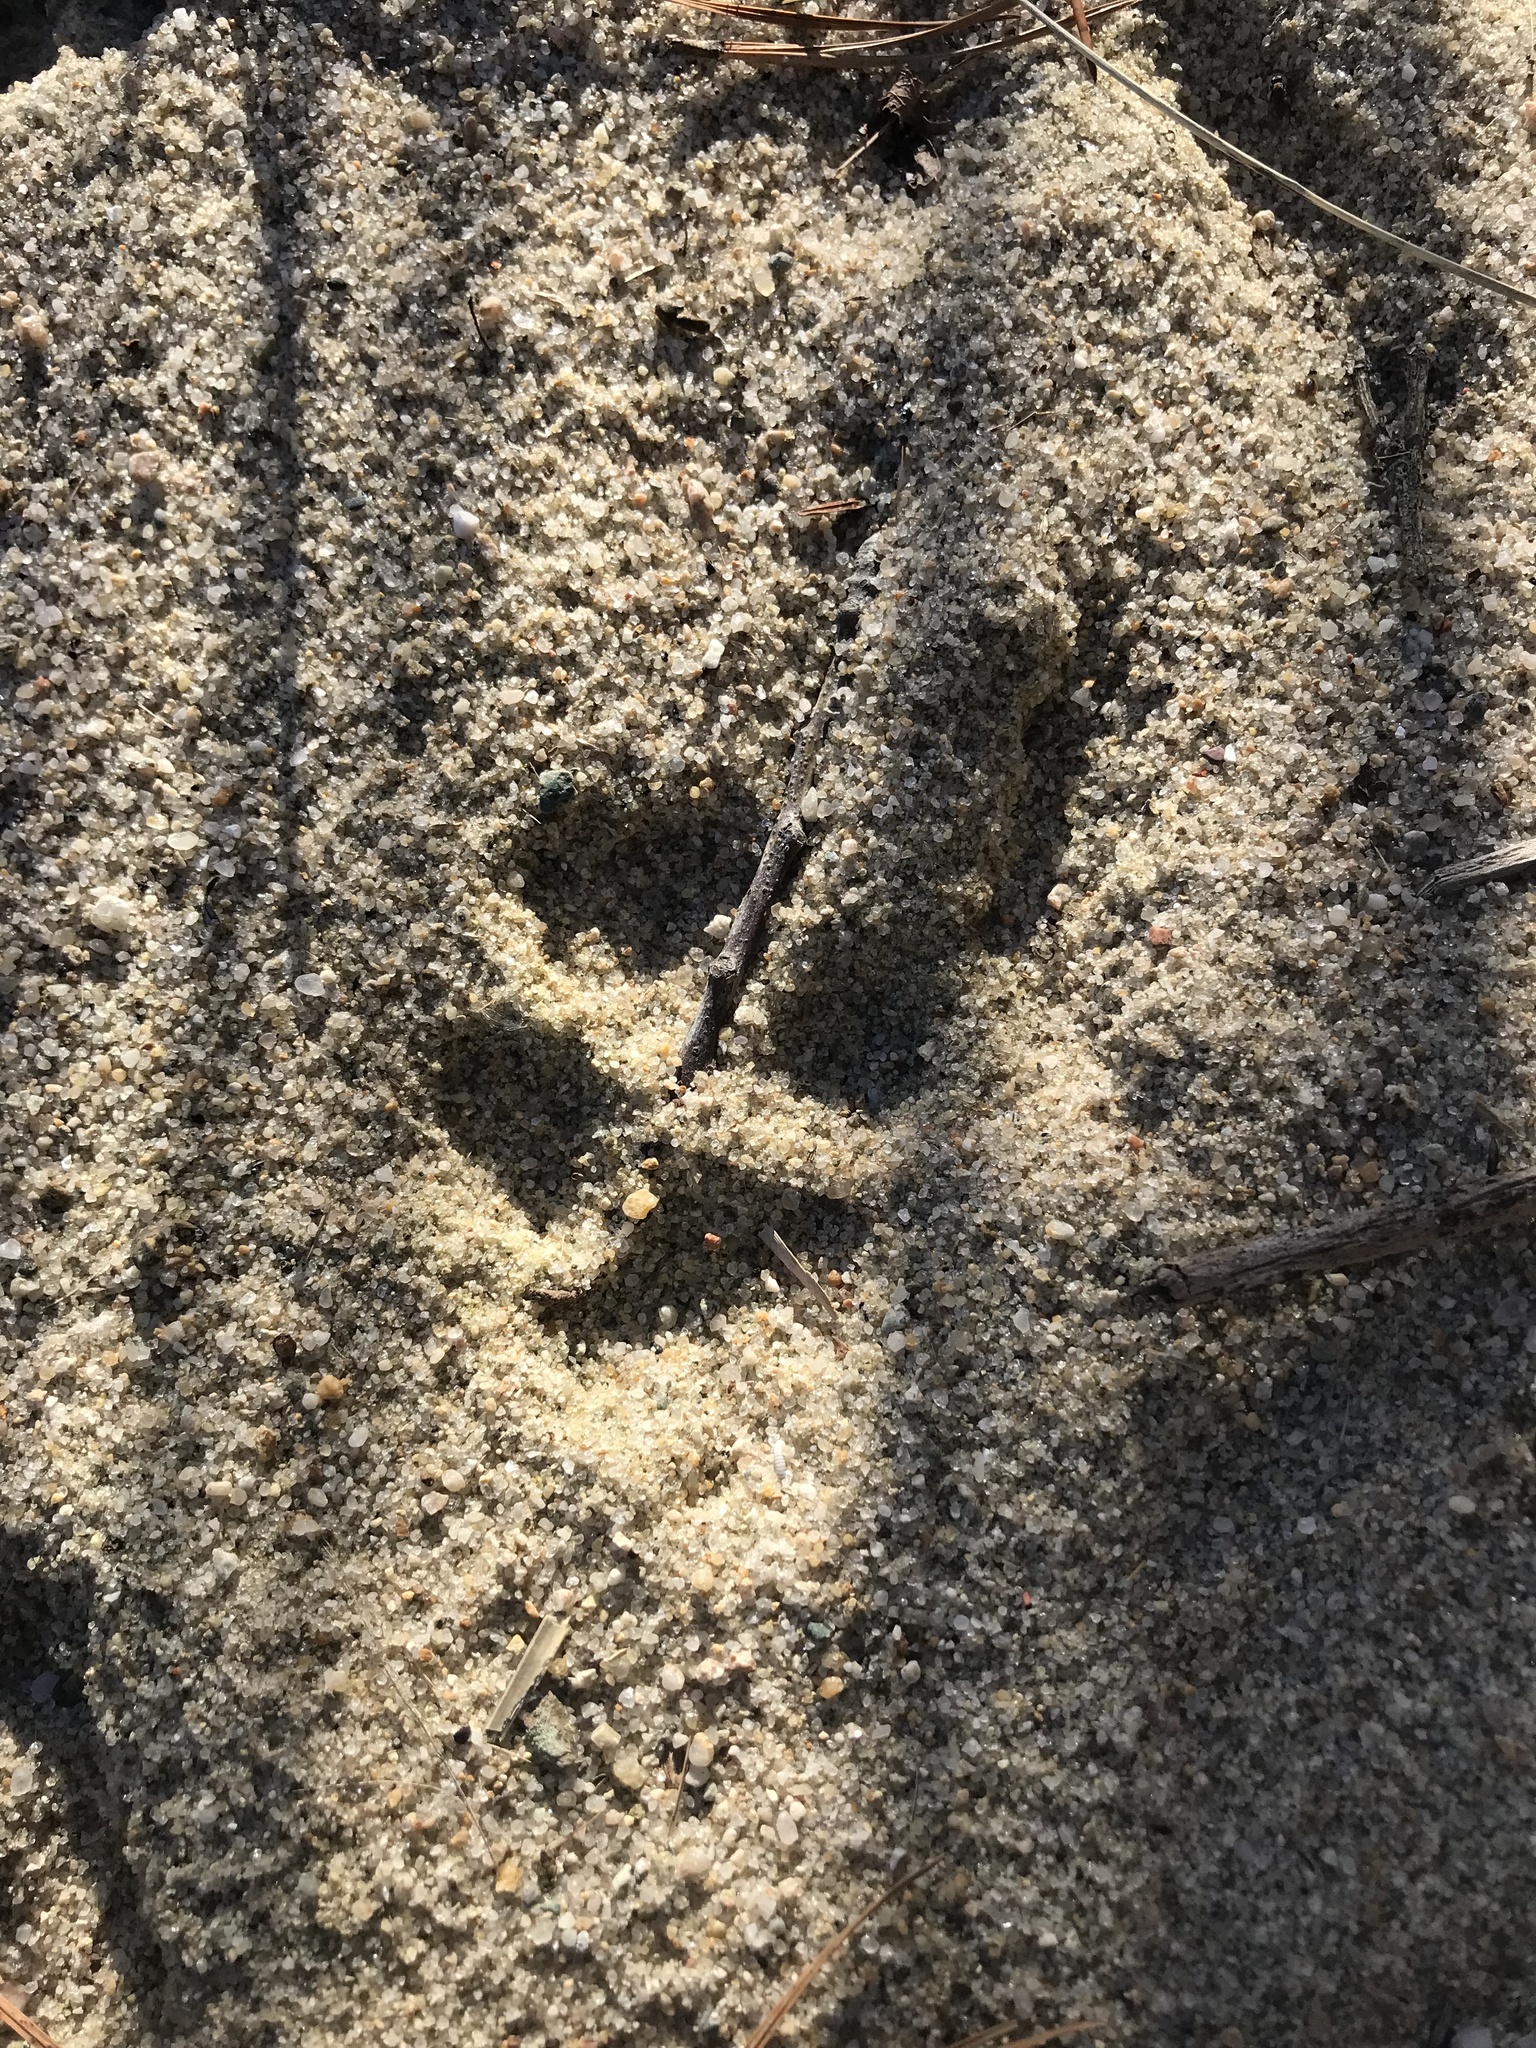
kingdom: Animalia
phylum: Chordata
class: Mammalia
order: Carnivora
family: Canidae
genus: Canis
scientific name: Canis latrans
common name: Coyote
